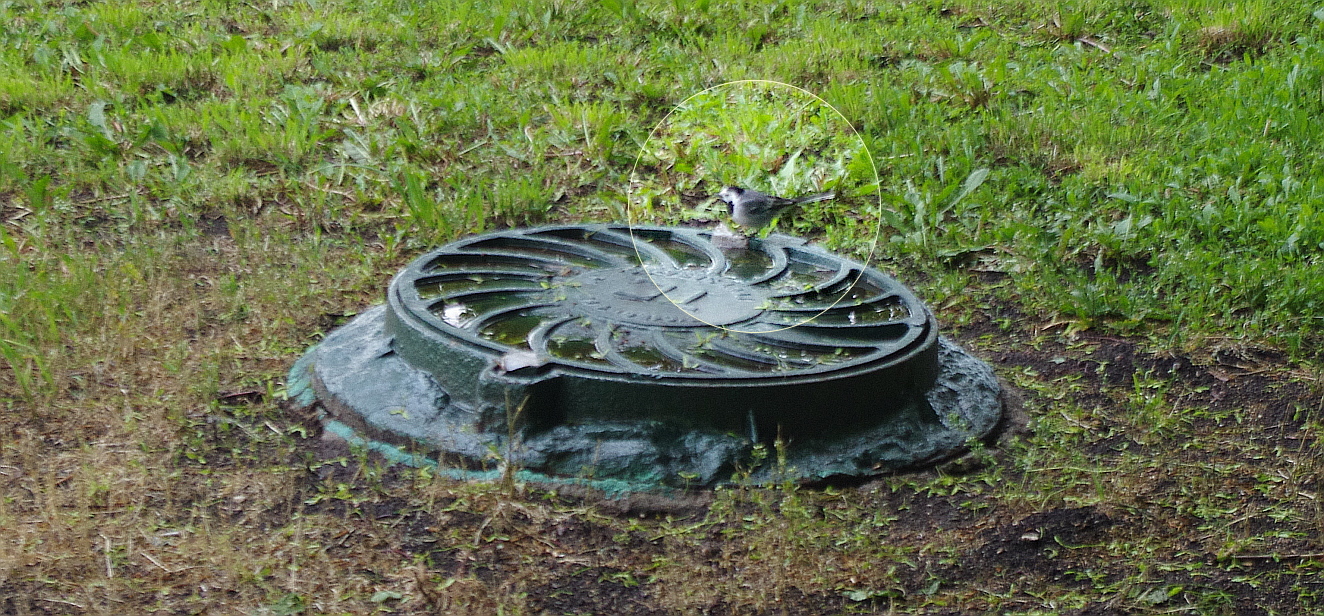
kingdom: Animalia
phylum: Chordata
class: Aves
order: Passeriformes
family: Motacillidae
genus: Motacilla
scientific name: Motacilla alba
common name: White wagtail
